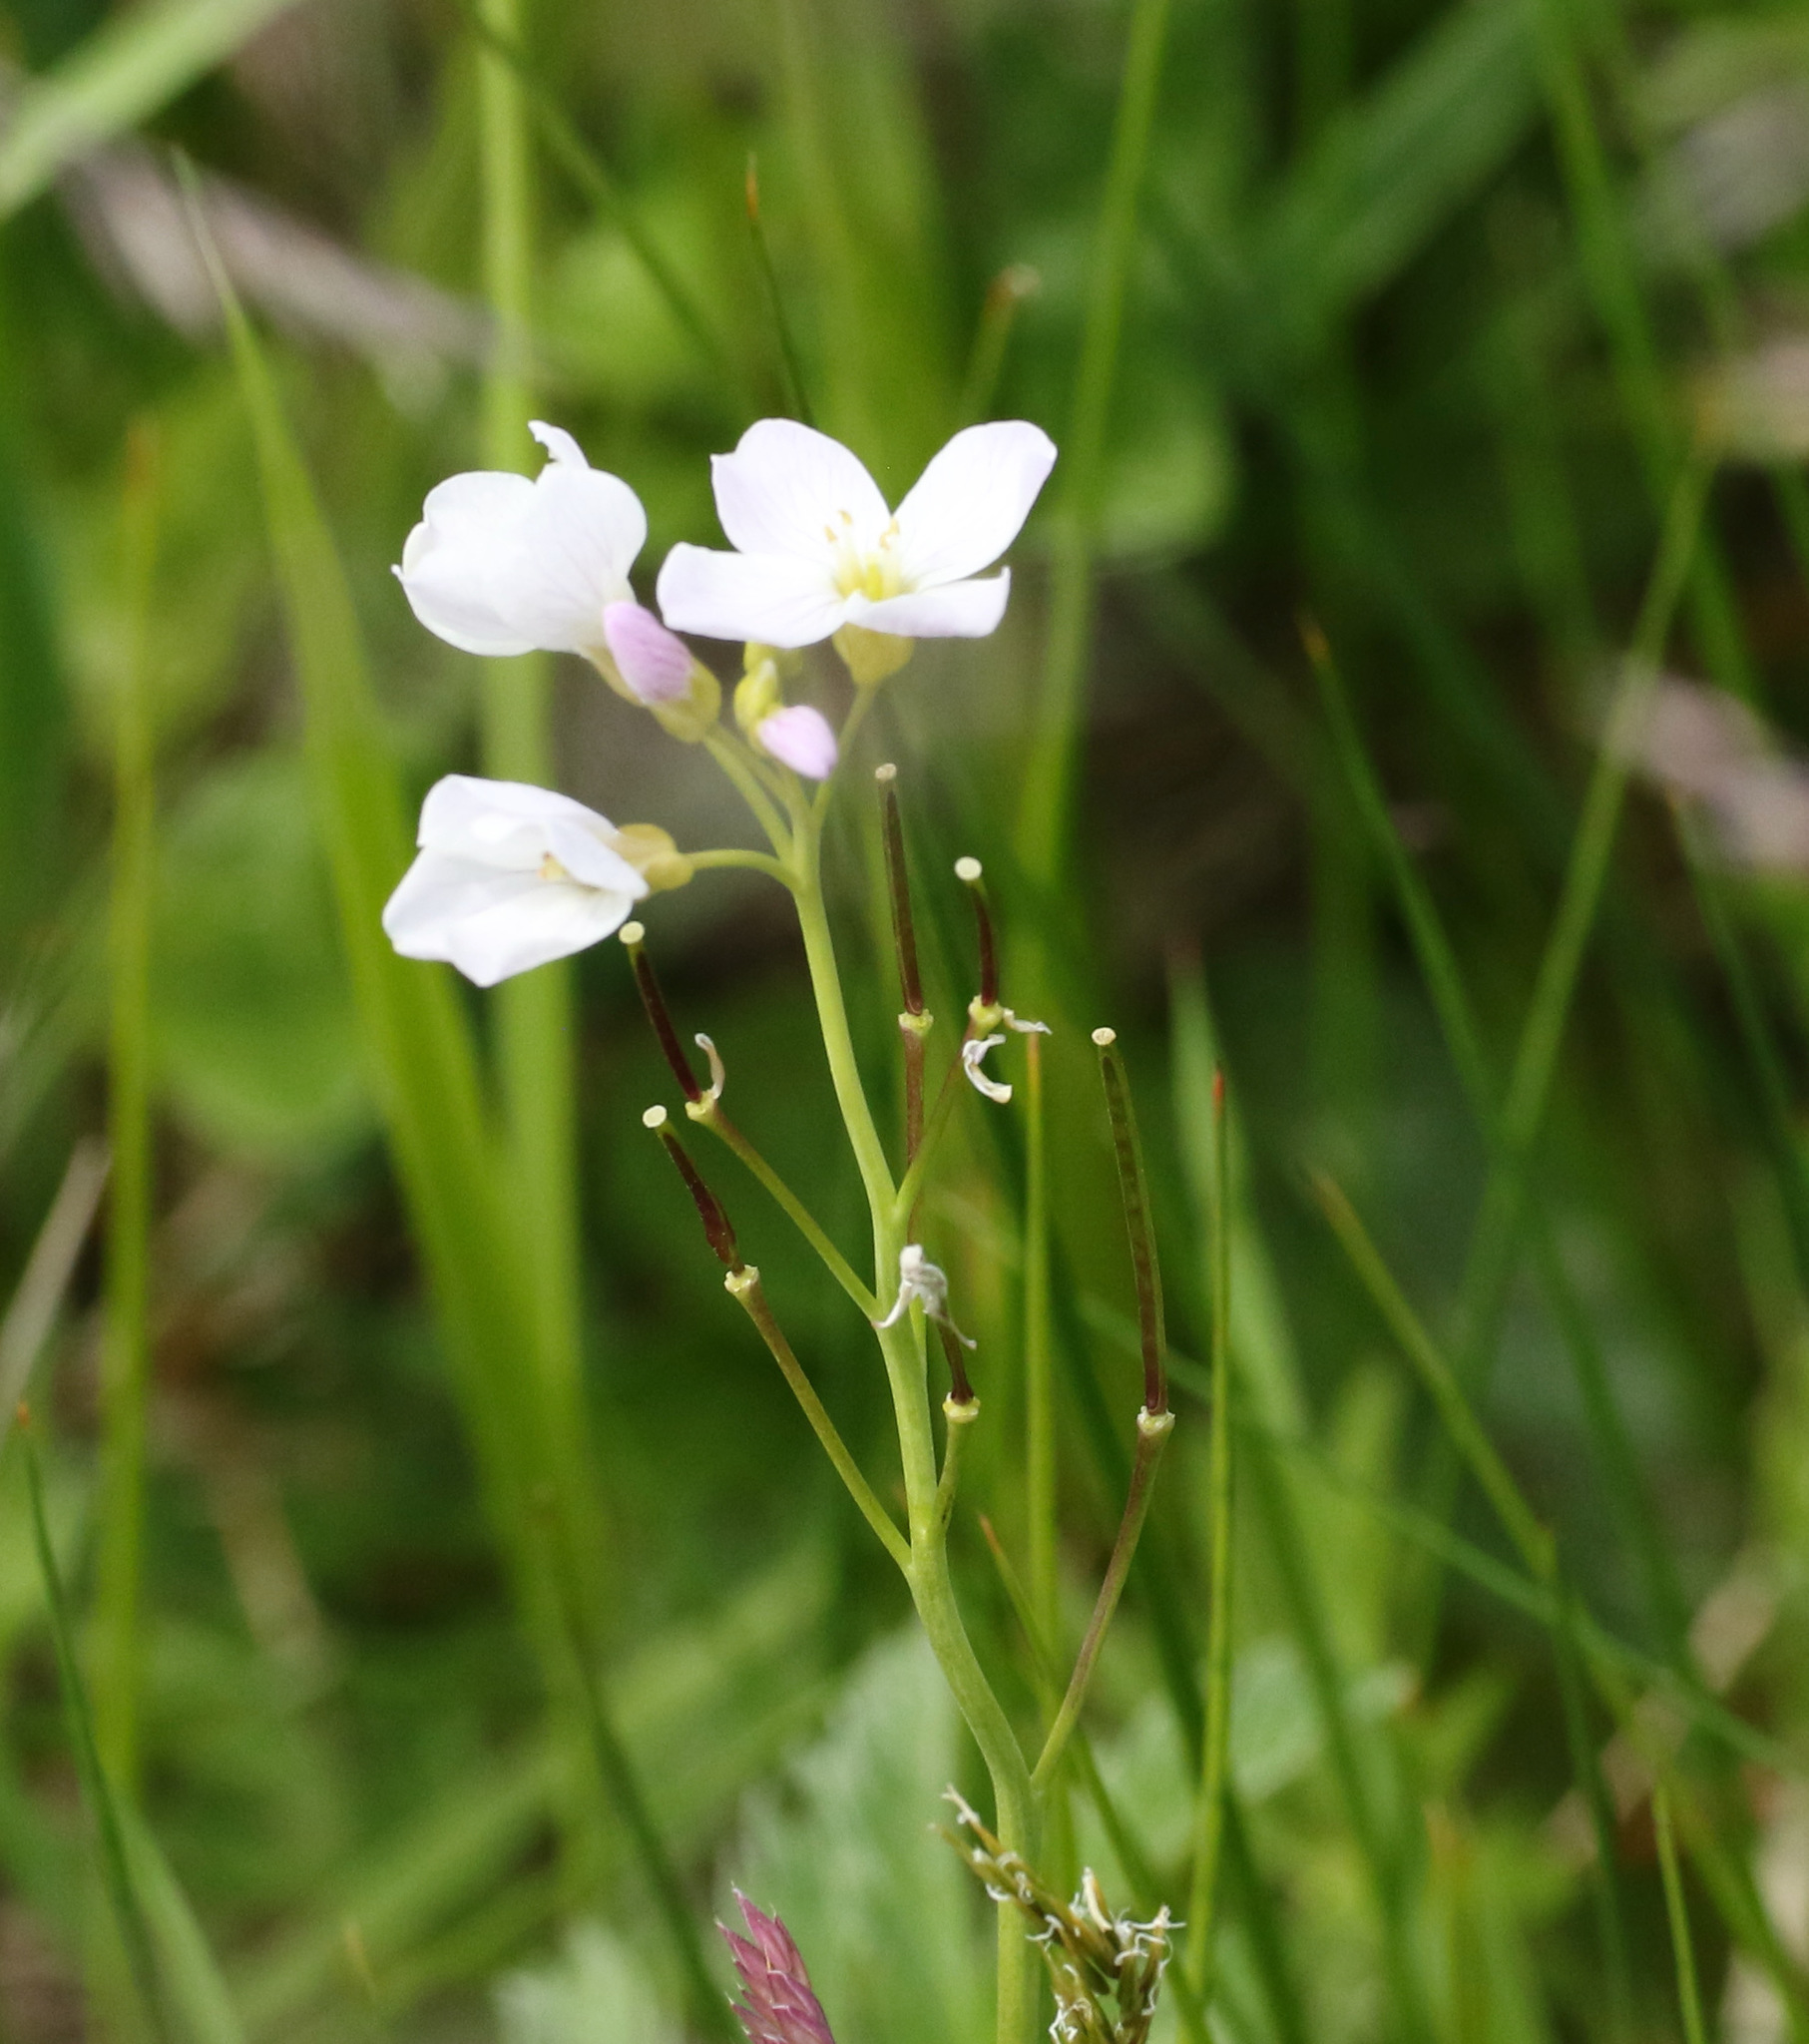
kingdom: Plantae
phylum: Tracheophyta
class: Magnoliopsida
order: Brassicales
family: Brassicaceae
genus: Cardamine
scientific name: Cardamine pratensis
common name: Cuckoo flower
